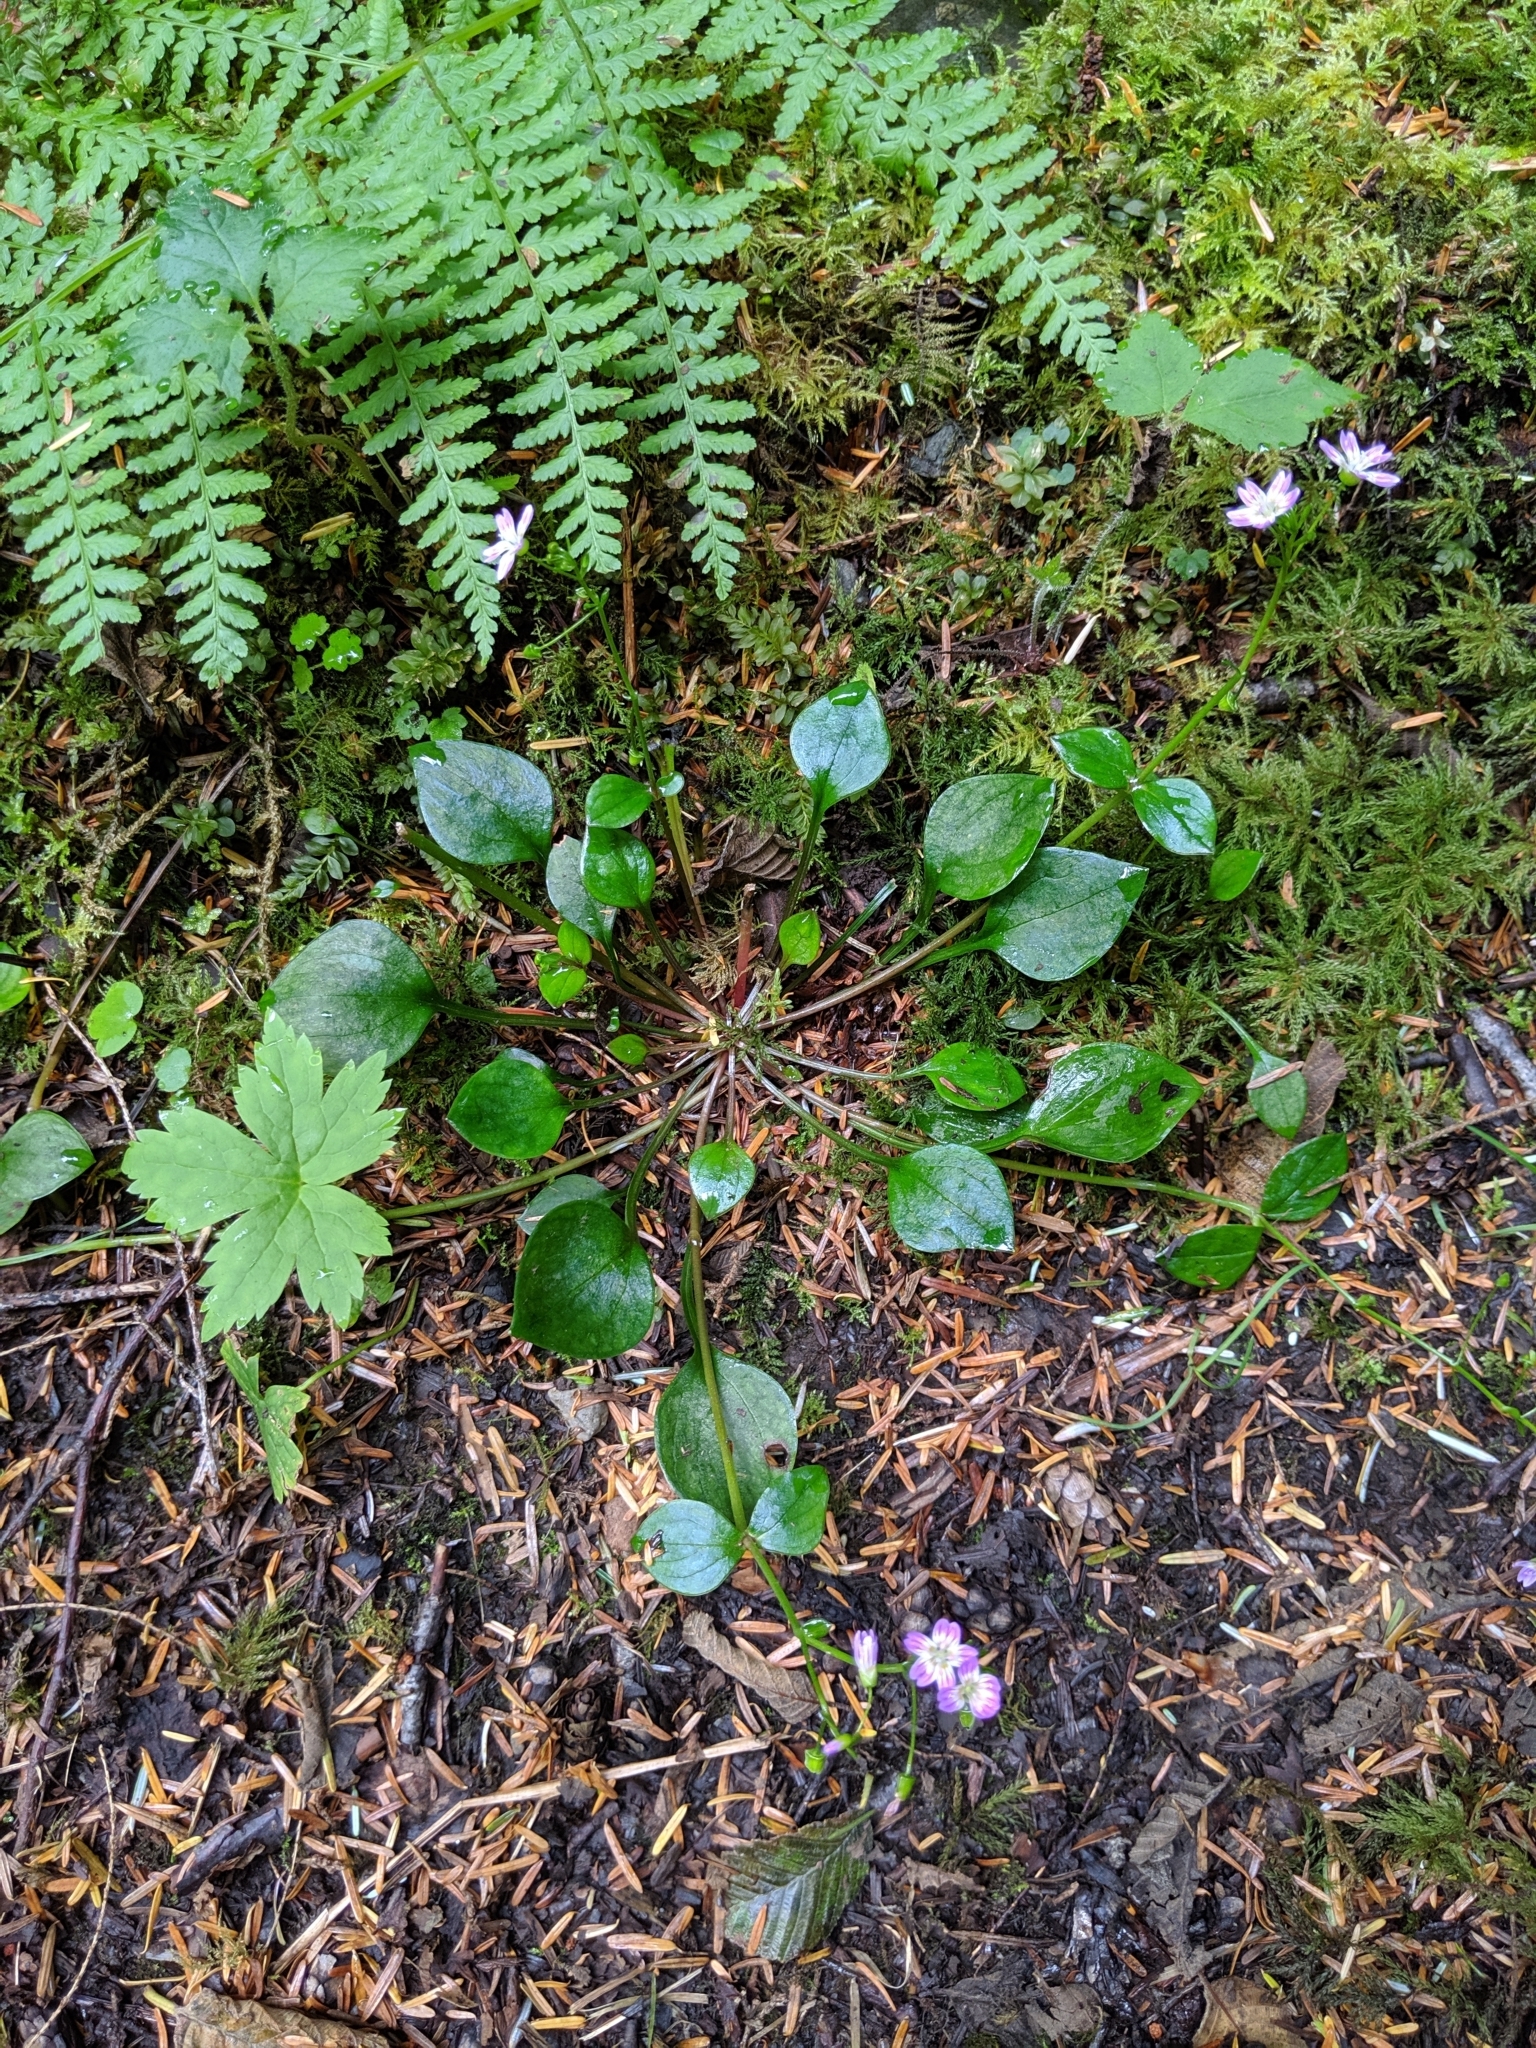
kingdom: Plantae
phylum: Tracheophyta
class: Magnoliopsida
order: Caryophyllales
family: Montiaceae
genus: Claytonia
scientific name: Claytonia sibirica
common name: Pink purslane
